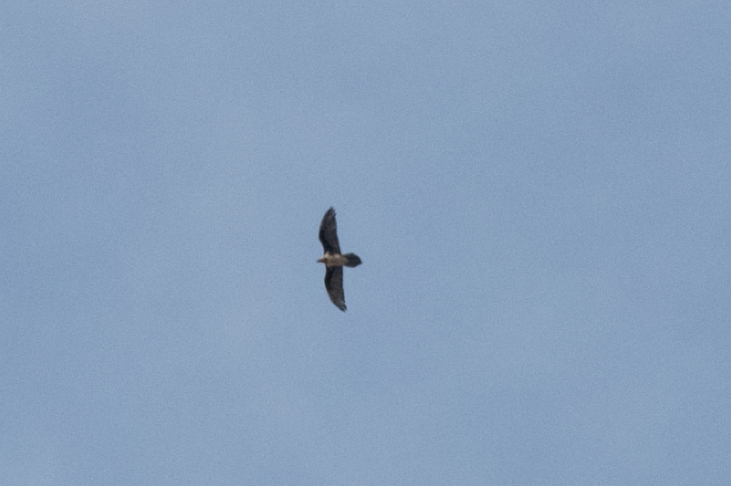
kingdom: Animalia
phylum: Chordata
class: Aves
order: Accipitriformes
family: Accipitridae
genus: Gypaetus
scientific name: Gypaetus barbatus
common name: Bearded vulture
